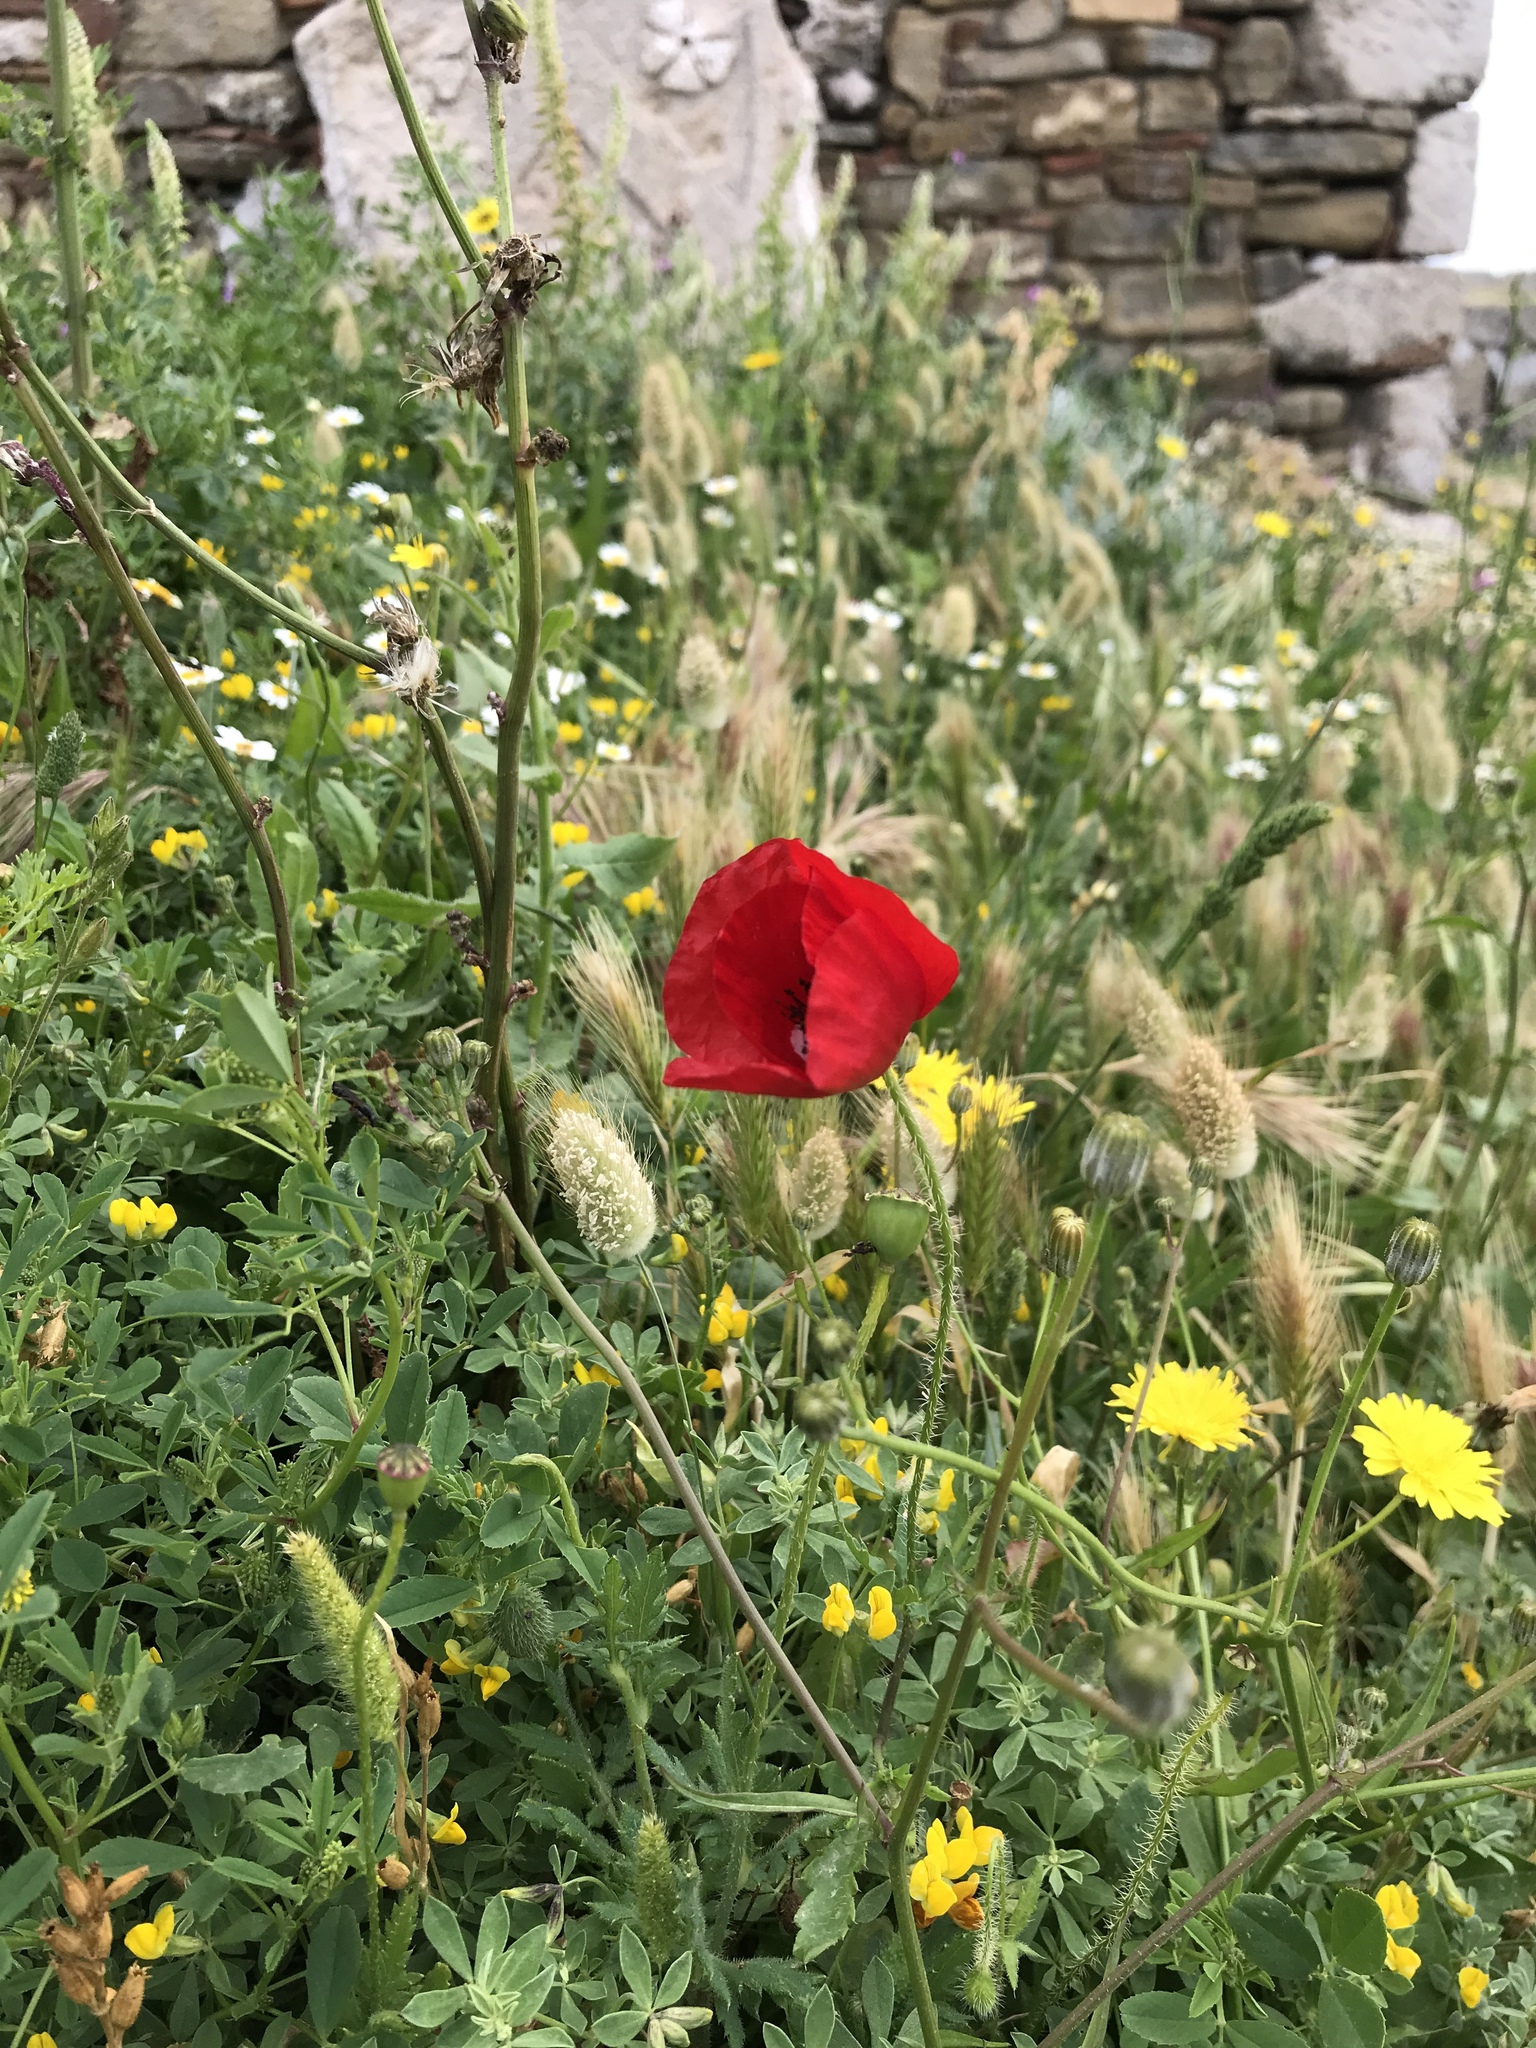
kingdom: Plantae
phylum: Tracheophyta
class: Magnoliopsida
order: Ranunculales
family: Papaveraceae
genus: Papaver
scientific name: Papaver rhoeas
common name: Corn poppy
